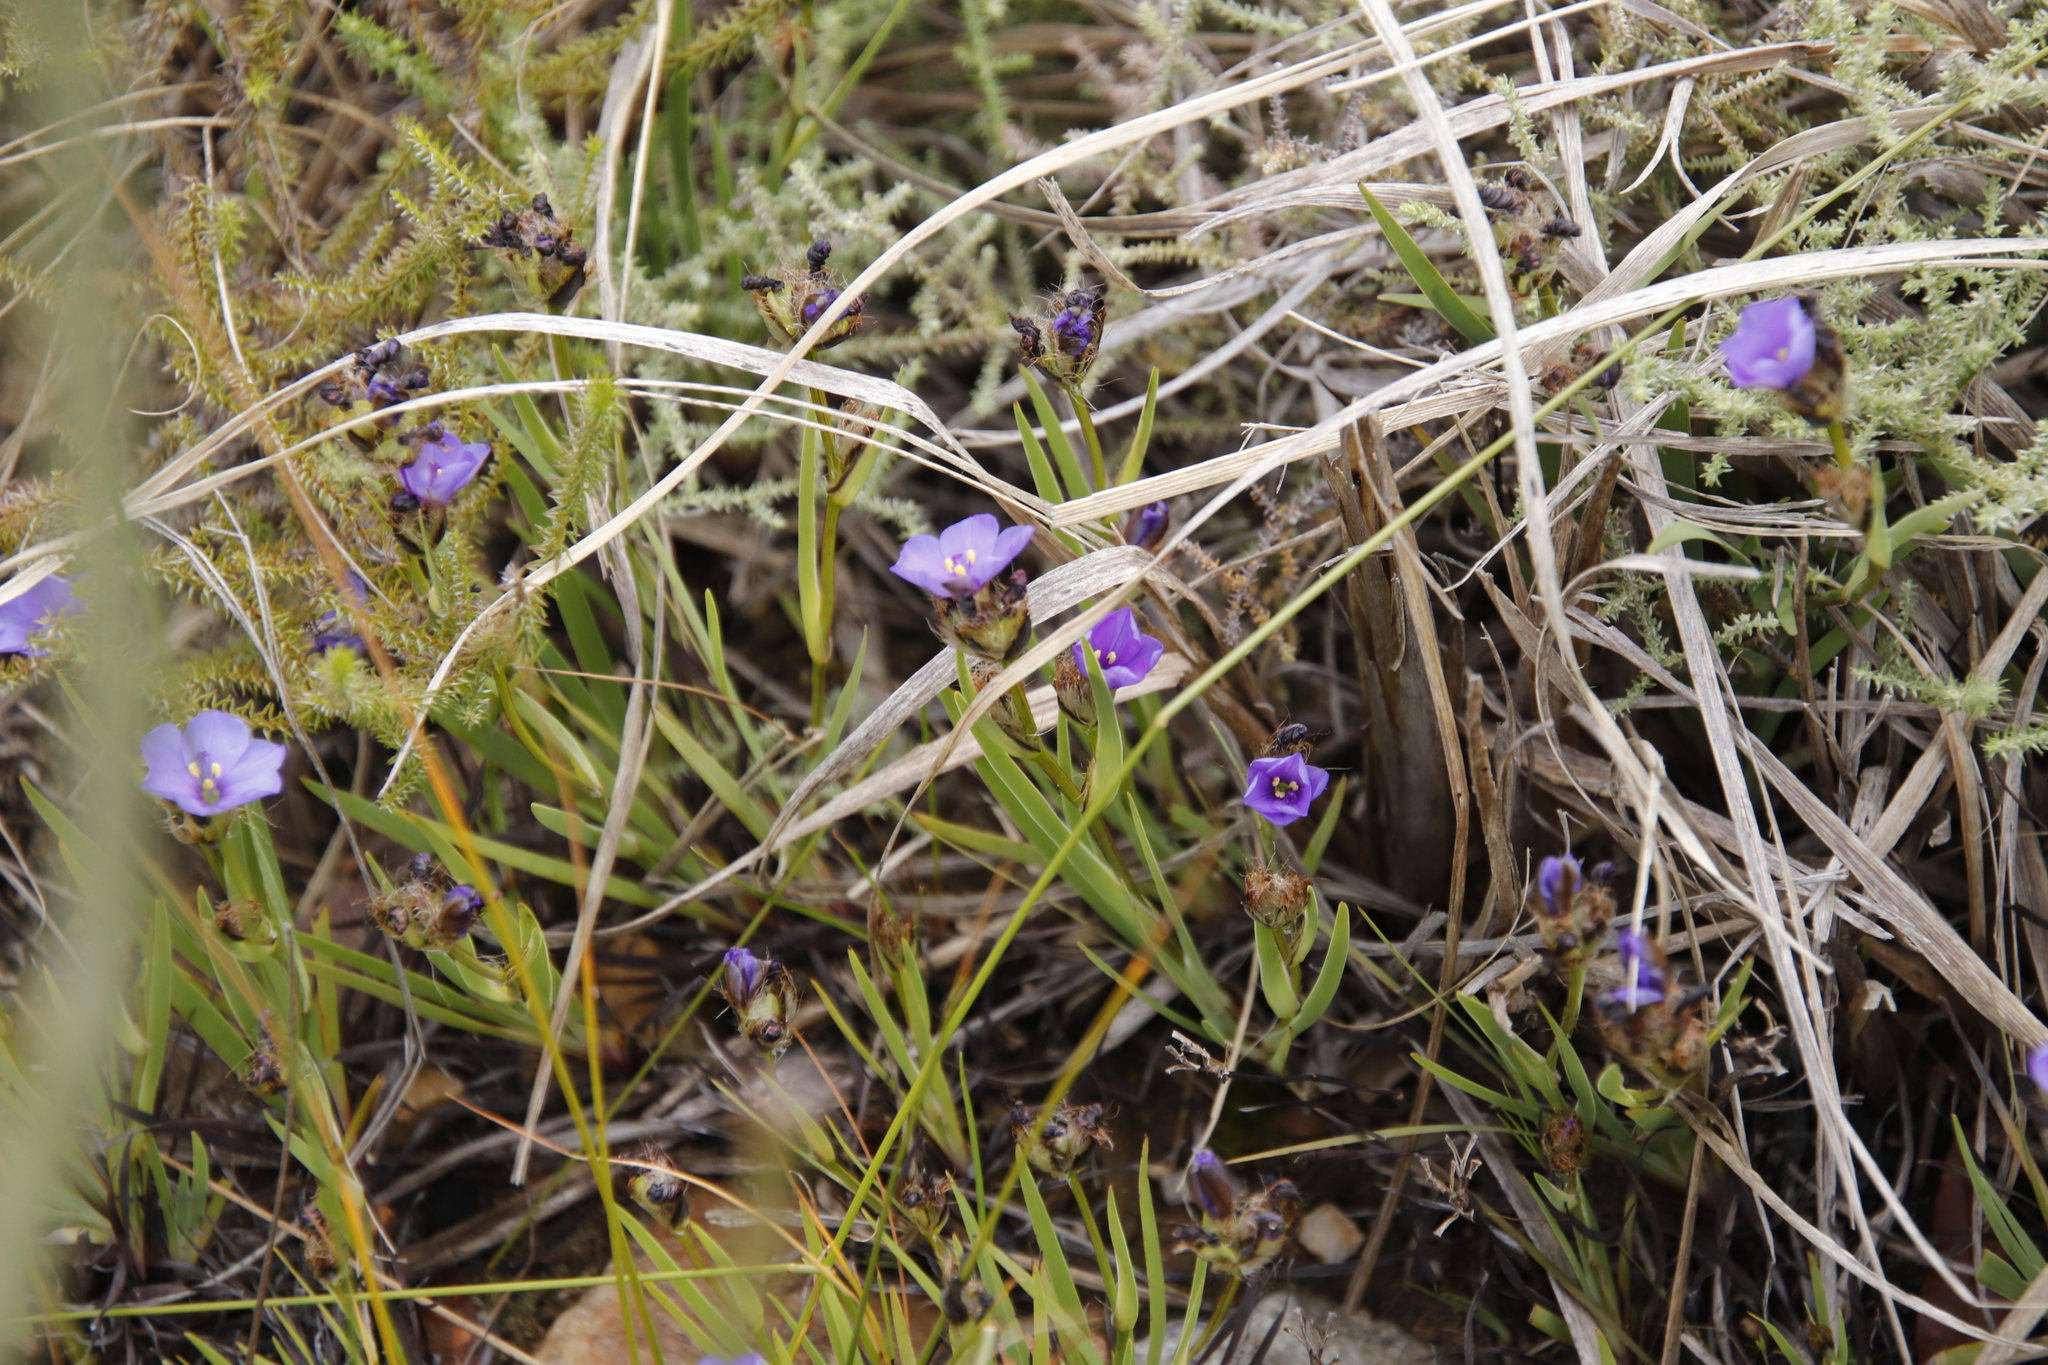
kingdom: Plantae
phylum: Tracheophyta
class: Liliopsida
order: Asparagales
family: Iridaceae
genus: Aristea
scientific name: Aristea africana
